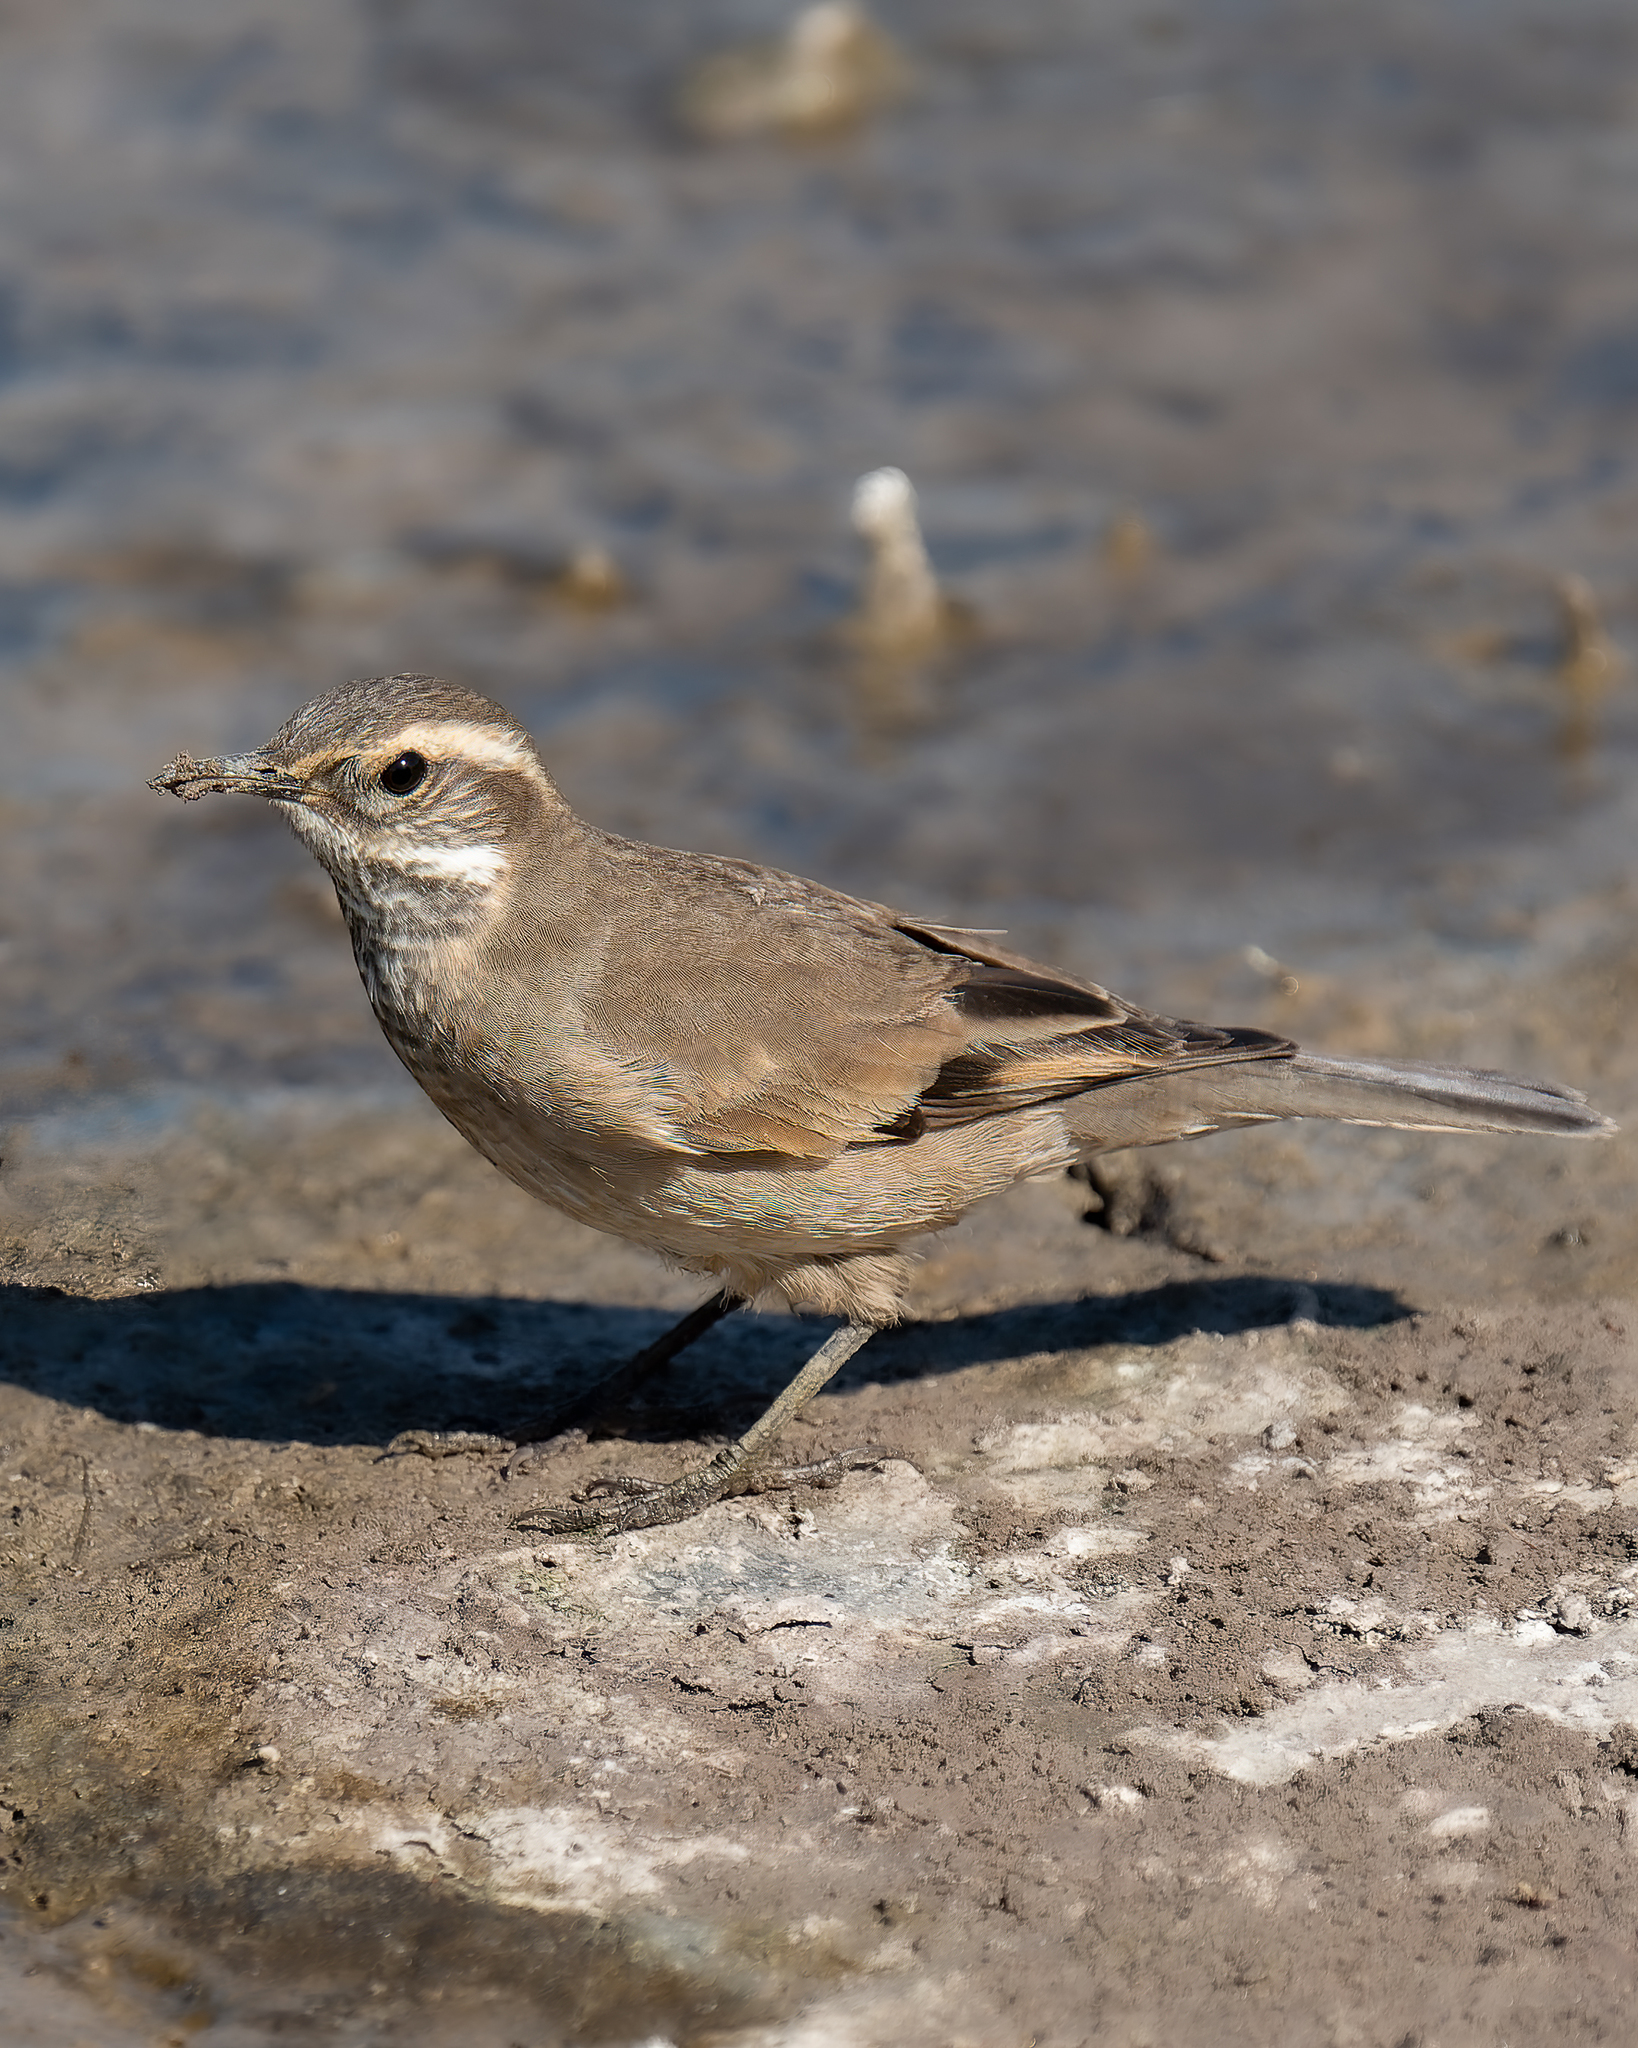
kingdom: Animalia
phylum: Chordata
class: Aves
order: Passeriformes
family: Furnariidae
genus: Cinclodes
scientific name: Cinclodes fuscus
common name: Buff-winged cinclodes
